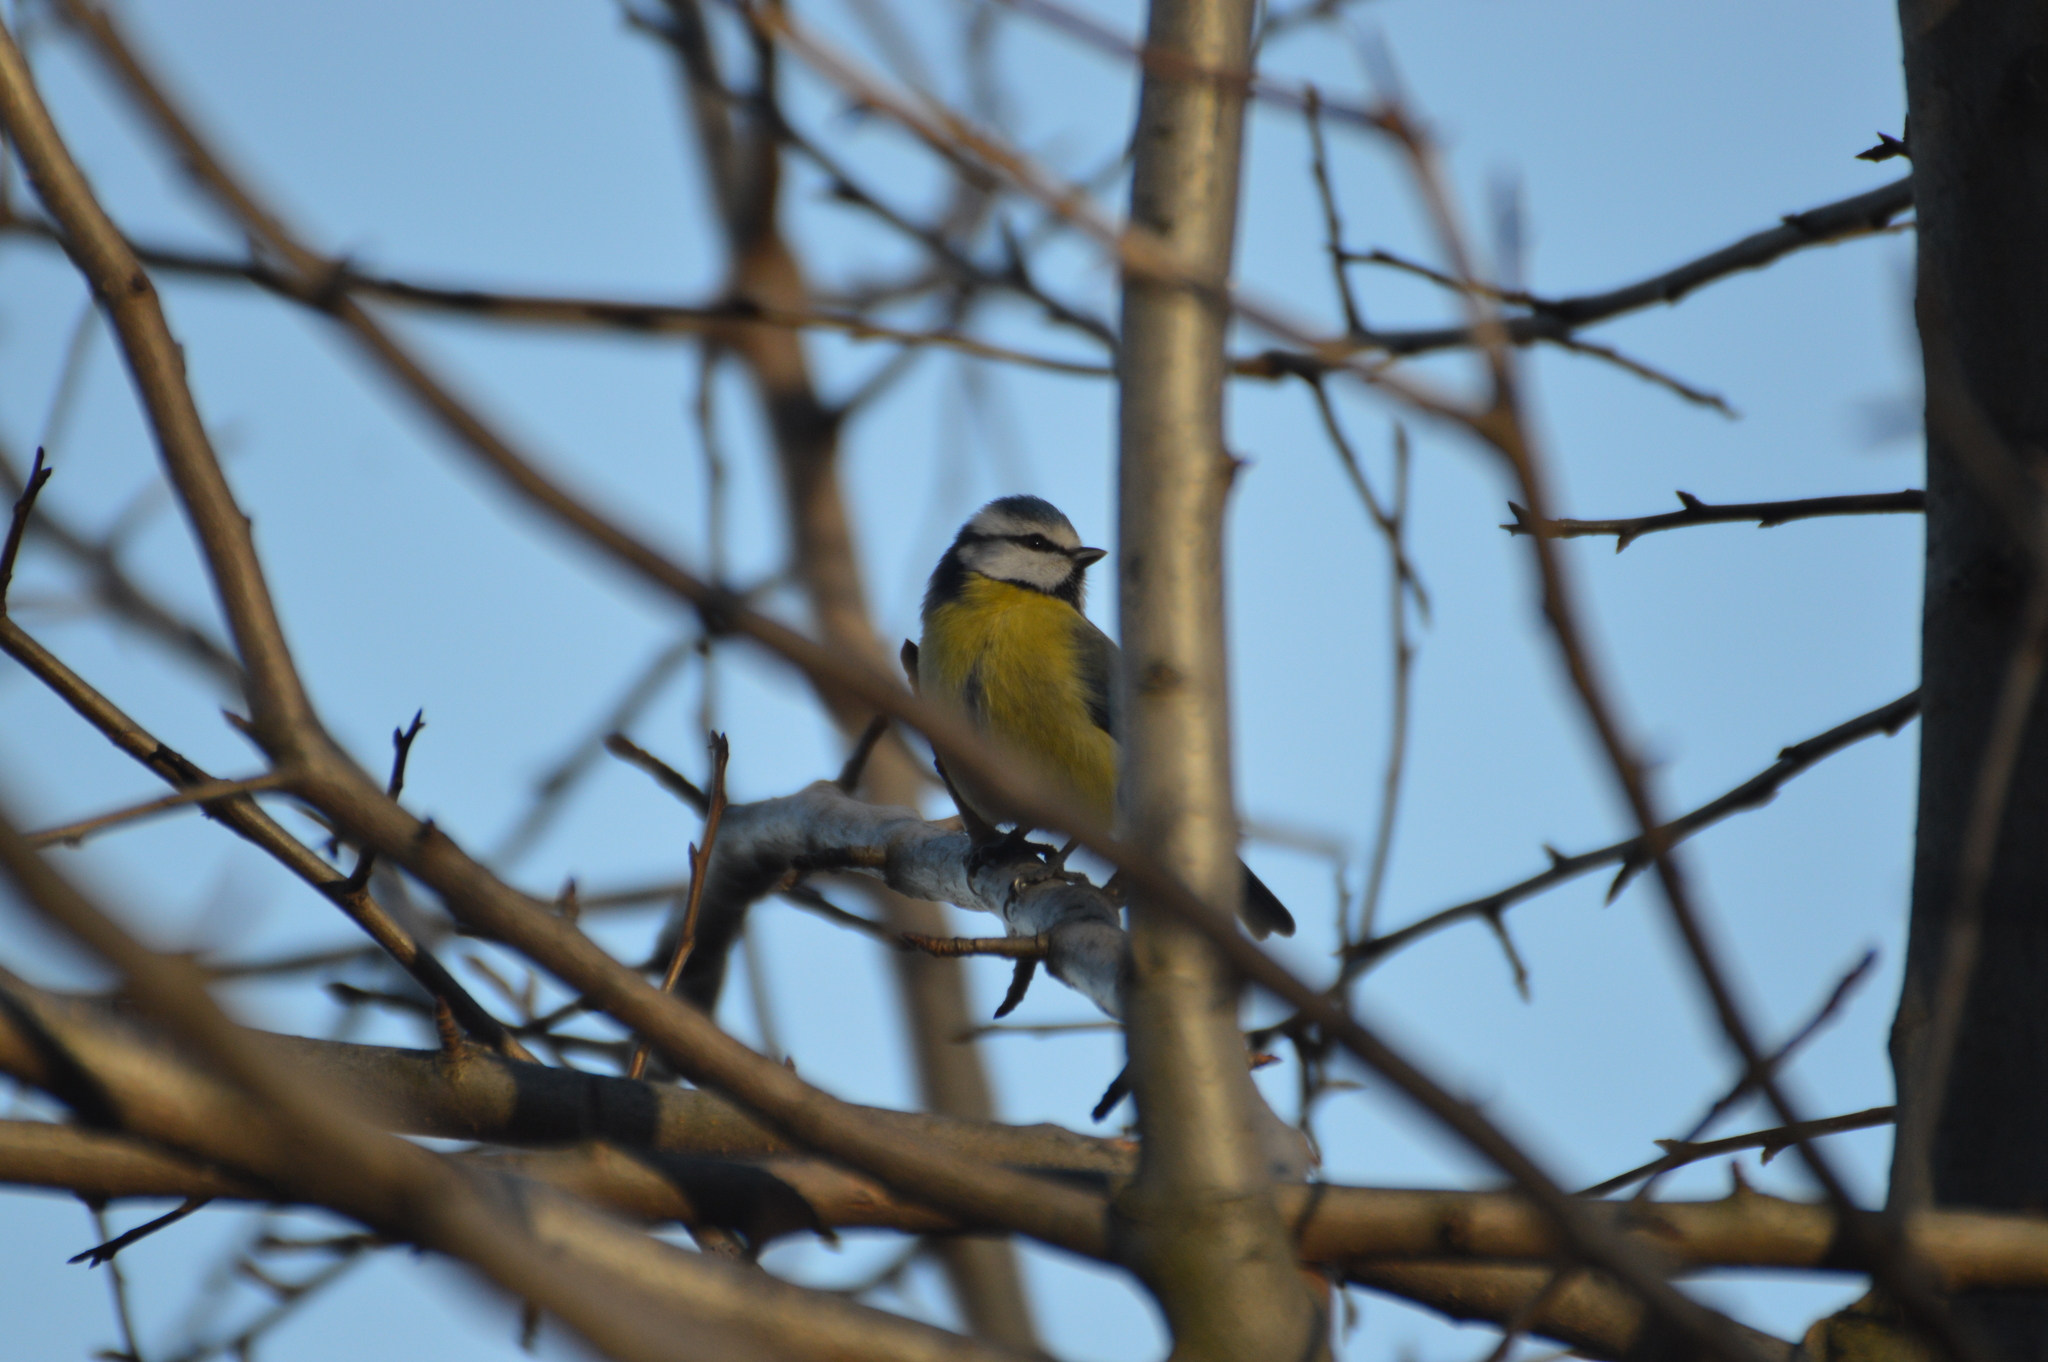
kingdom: Animalia
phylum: Chordata
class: Aves
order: Passeriformes
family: Paridae
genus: Cyanistes
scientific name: Cyanistes caeruleus
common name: Eurasian blue tit
